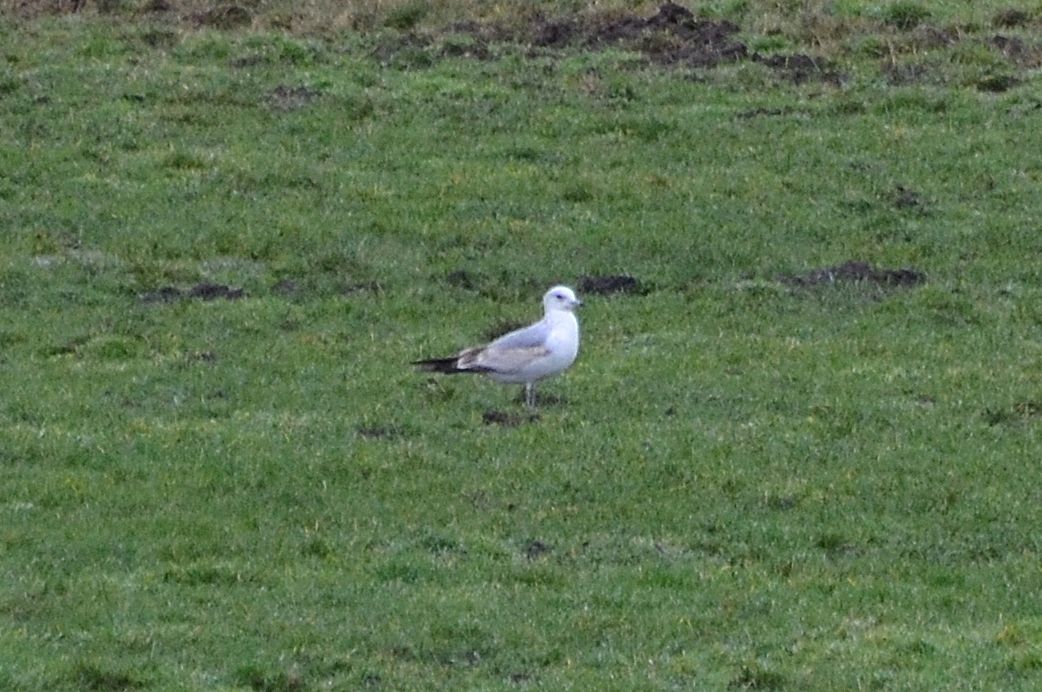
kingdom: Animalia
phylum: Chordata
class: Aves
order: Charadriiformes
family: Laridae
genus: Larus
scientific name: Larus canus
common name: Mew gull
